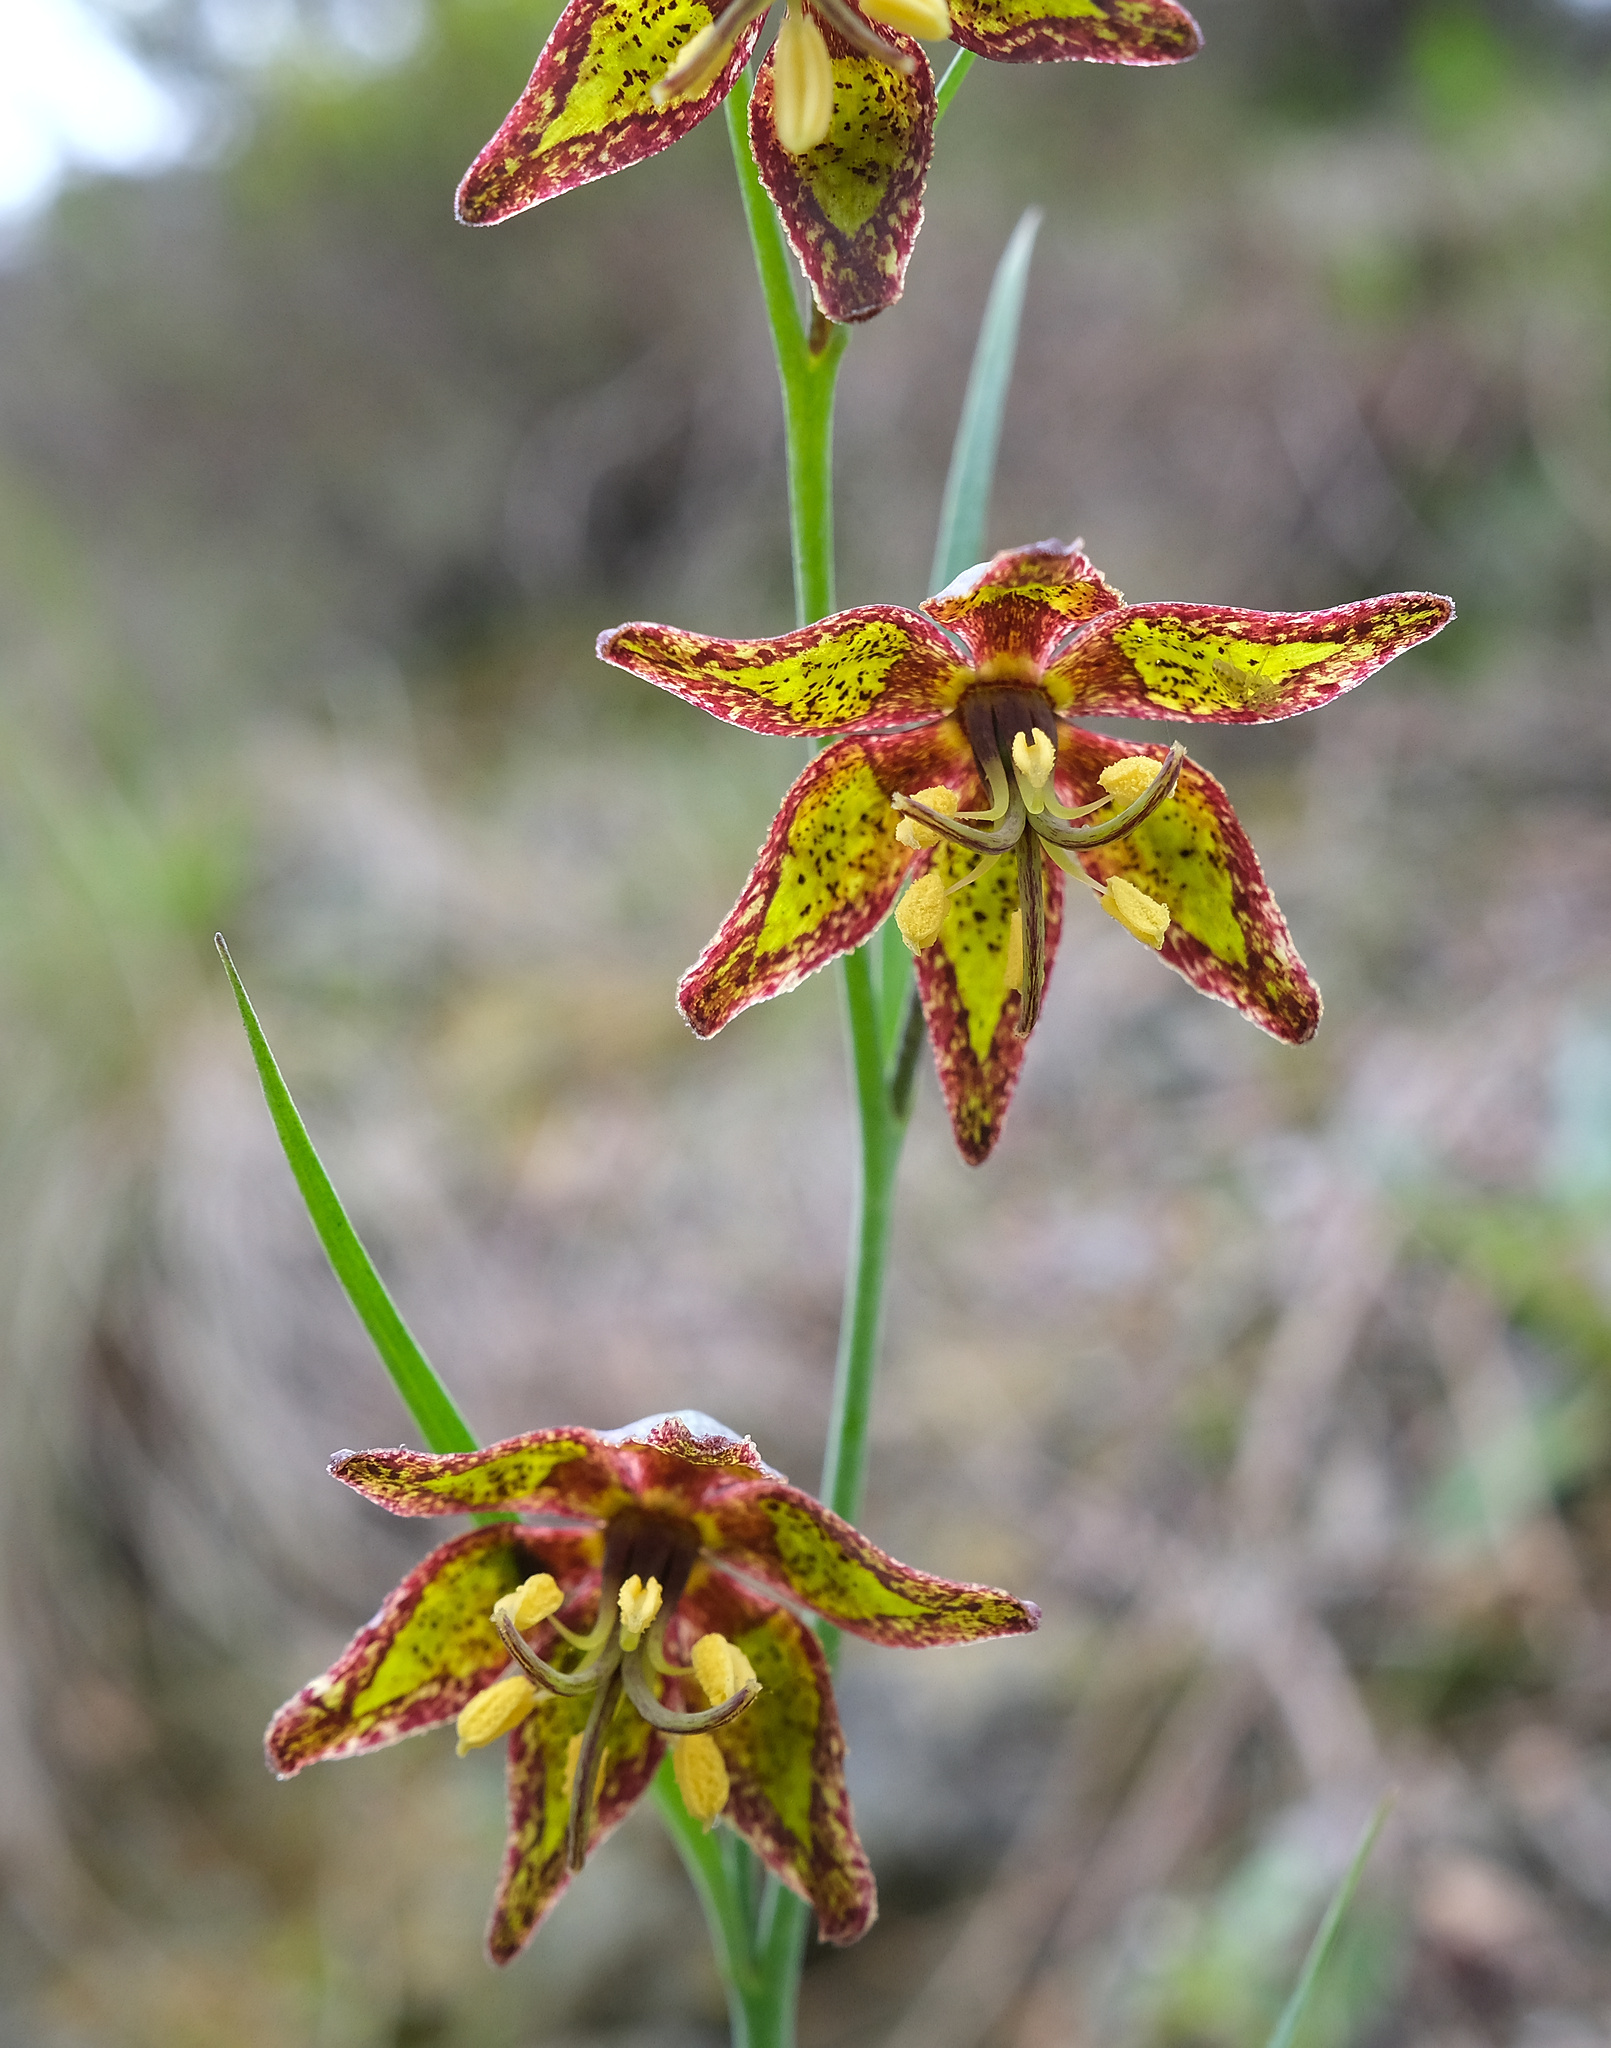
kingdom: Plantae
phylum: Tracheophyta
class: Liliopsida
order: Liliales
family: Liliaceae
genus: Fritillaria
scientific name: Fritillaria ojaiensis
